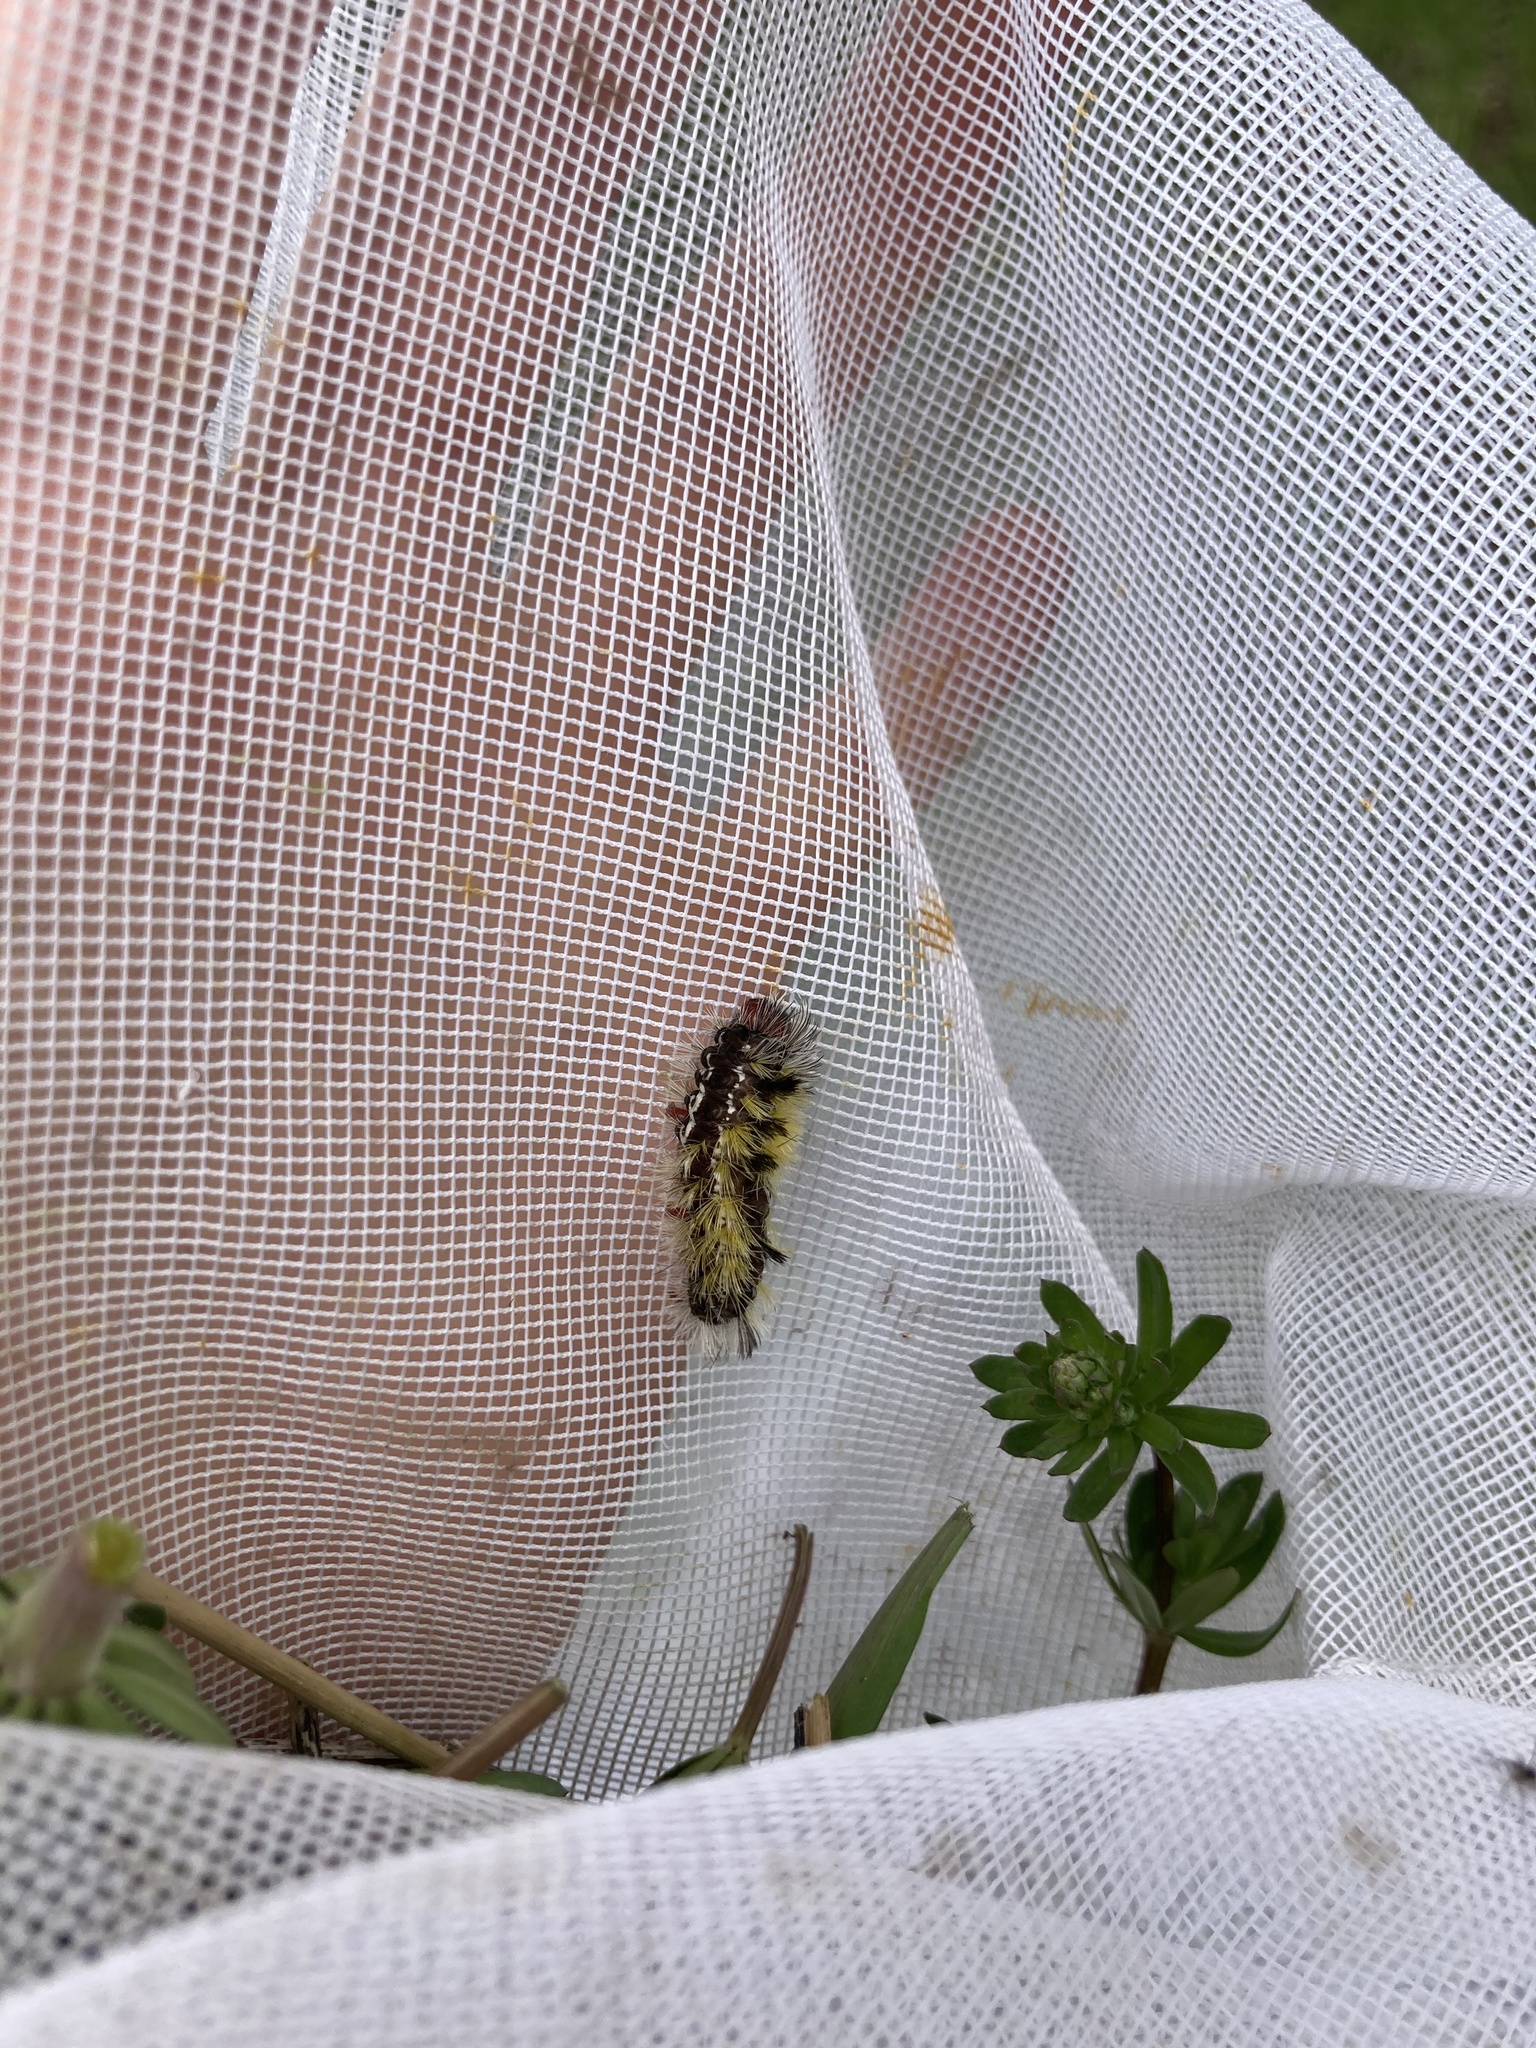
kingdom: Animalia
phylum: Arthropoda
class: Insecta
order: Lepidoptera
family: Erebidae
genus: Ctenucha
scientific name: Ctenucha virginica
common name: Virginia ctenucha moth
